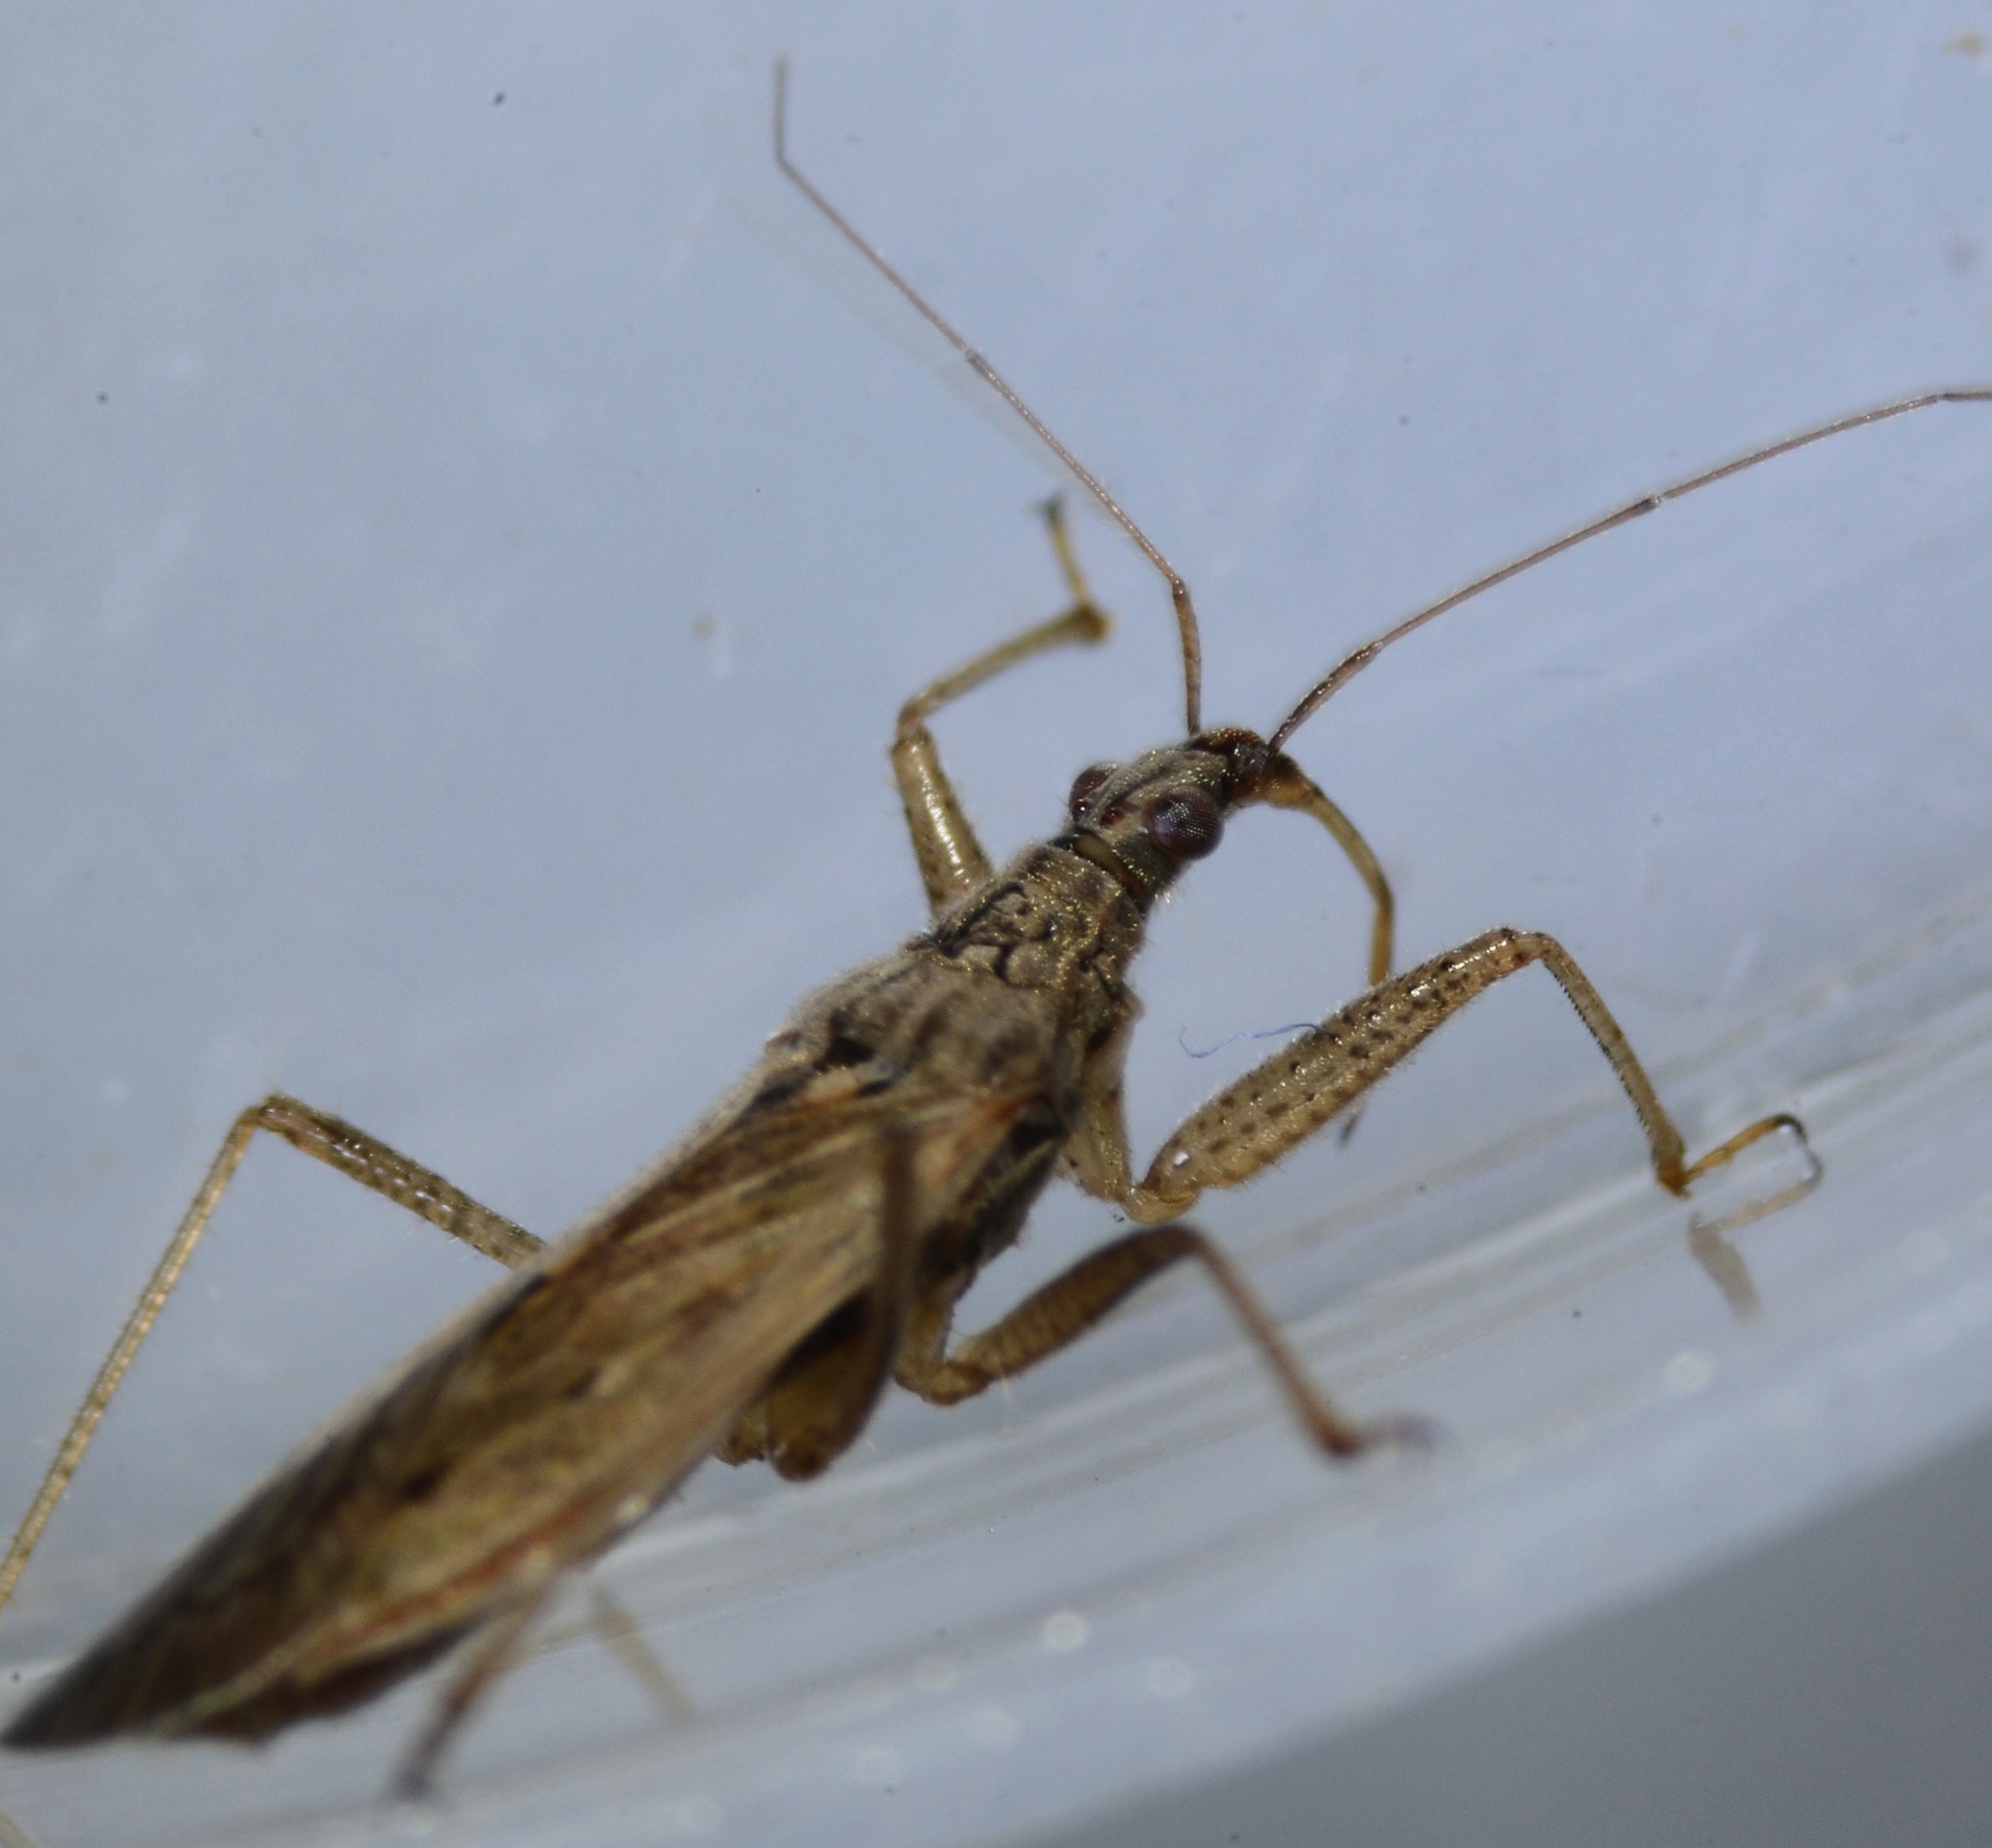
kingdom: Animalia
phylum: Arthropoda
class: Insecta
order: Hemiptera
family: Nabidae
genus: Nabis
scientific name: Nabis americoferus
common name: Common damsel bug
